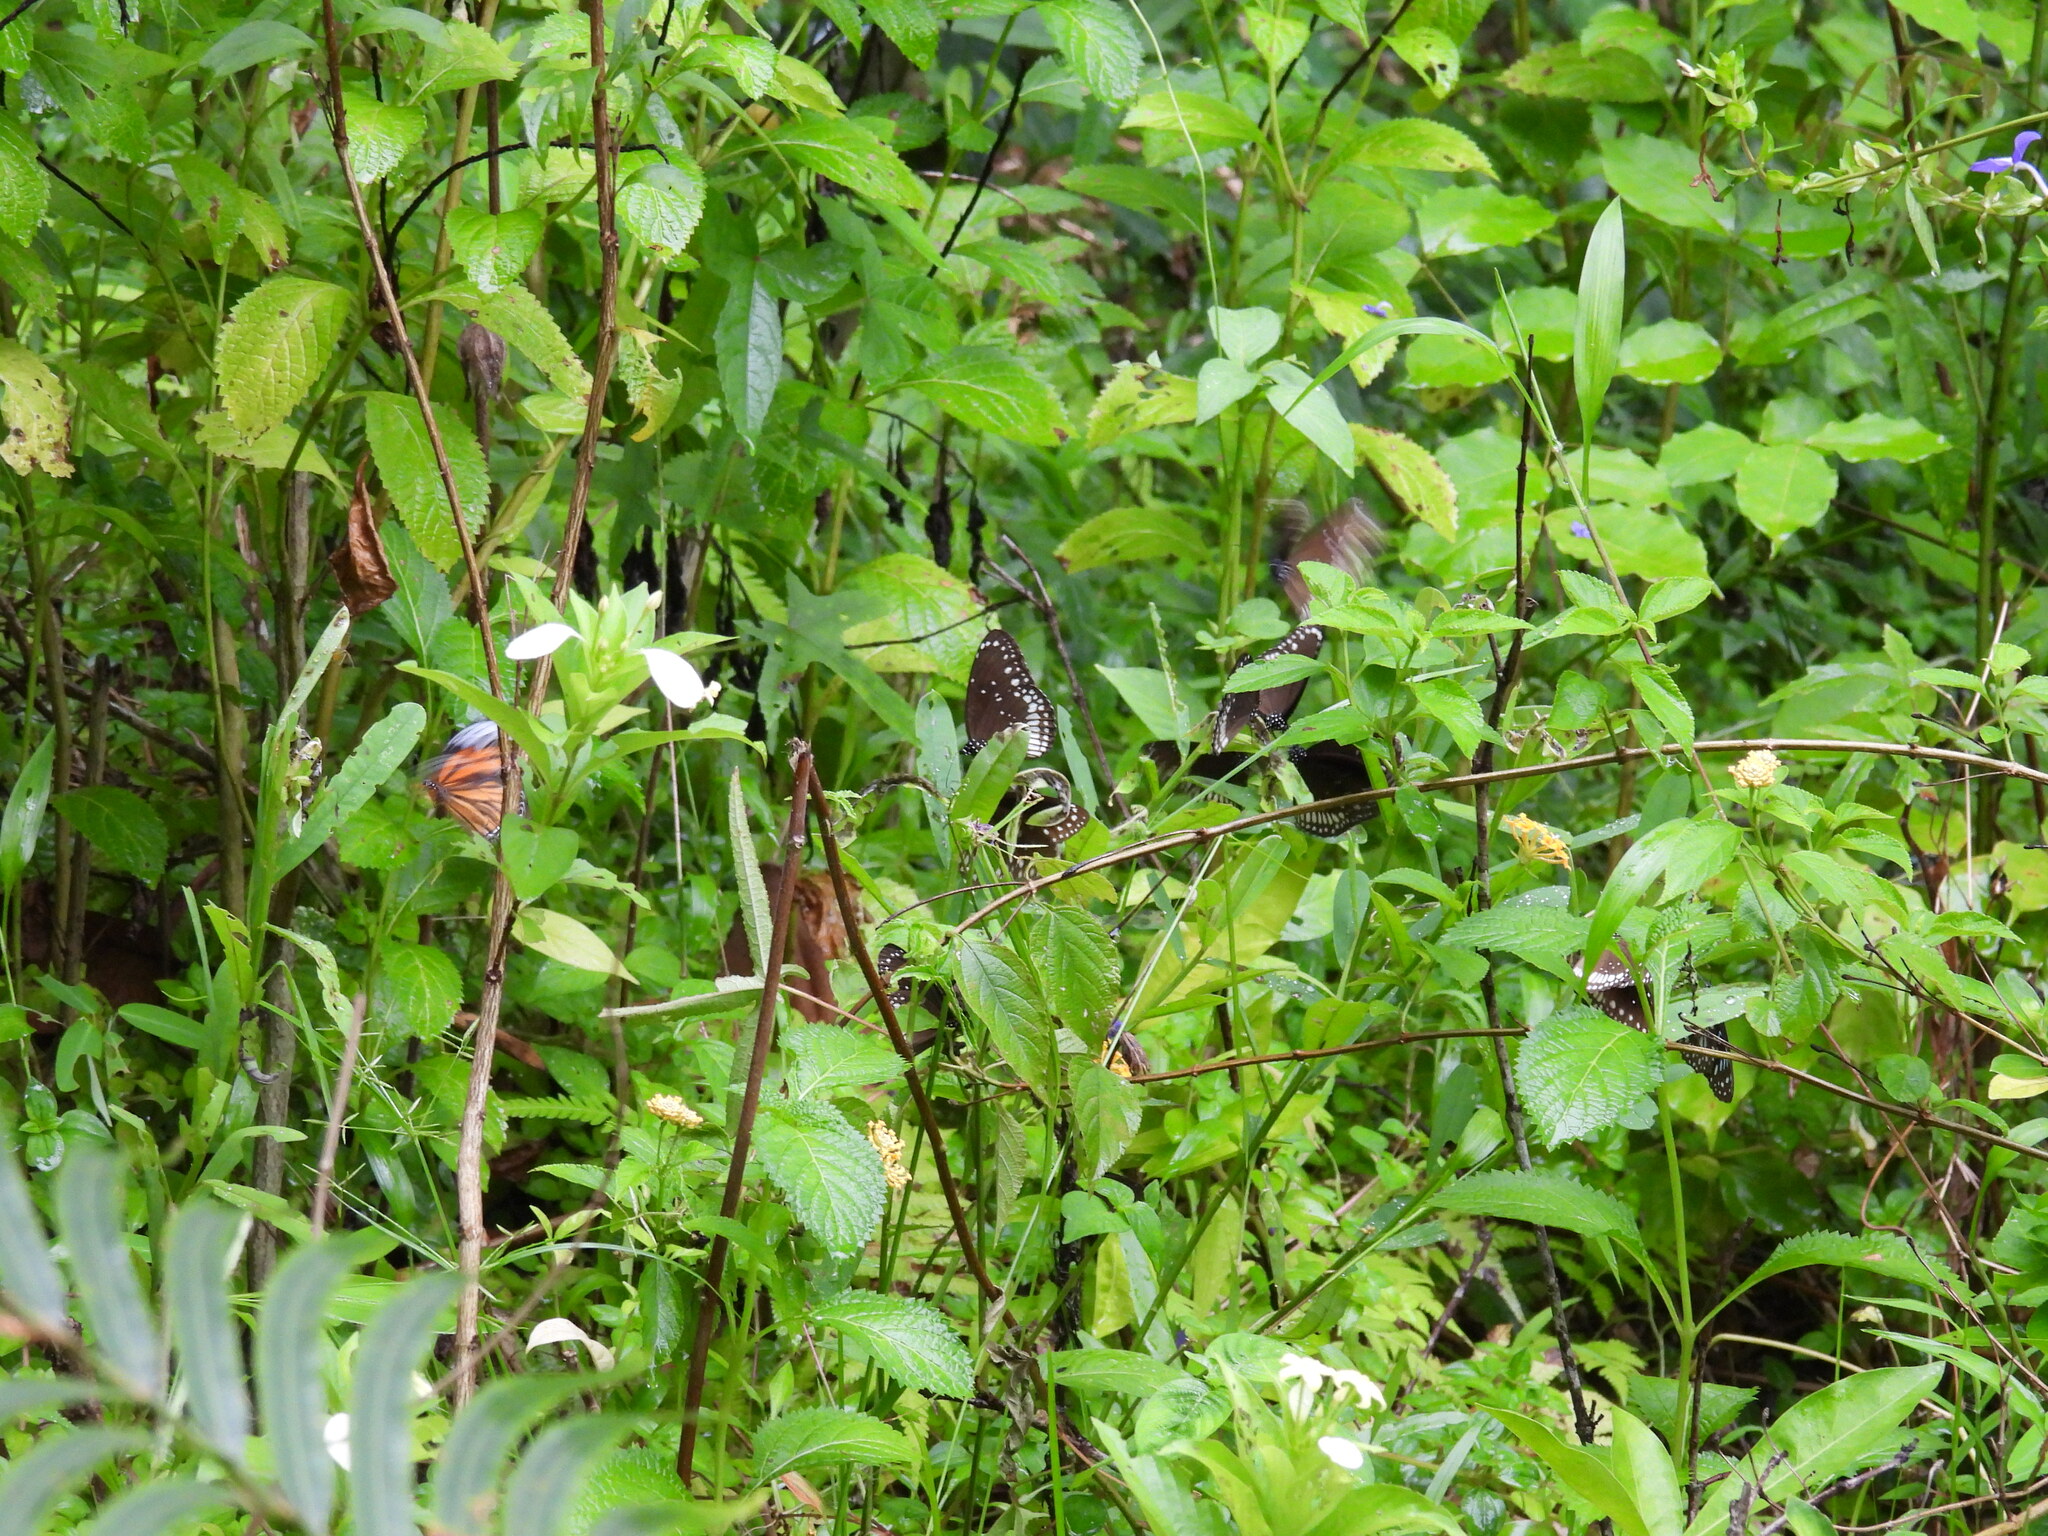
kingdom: Animalia
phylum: Arthropoda
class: Insecta
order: Lepidoptera
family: Nymphalidae
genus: Euploea
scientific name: Euploea core
